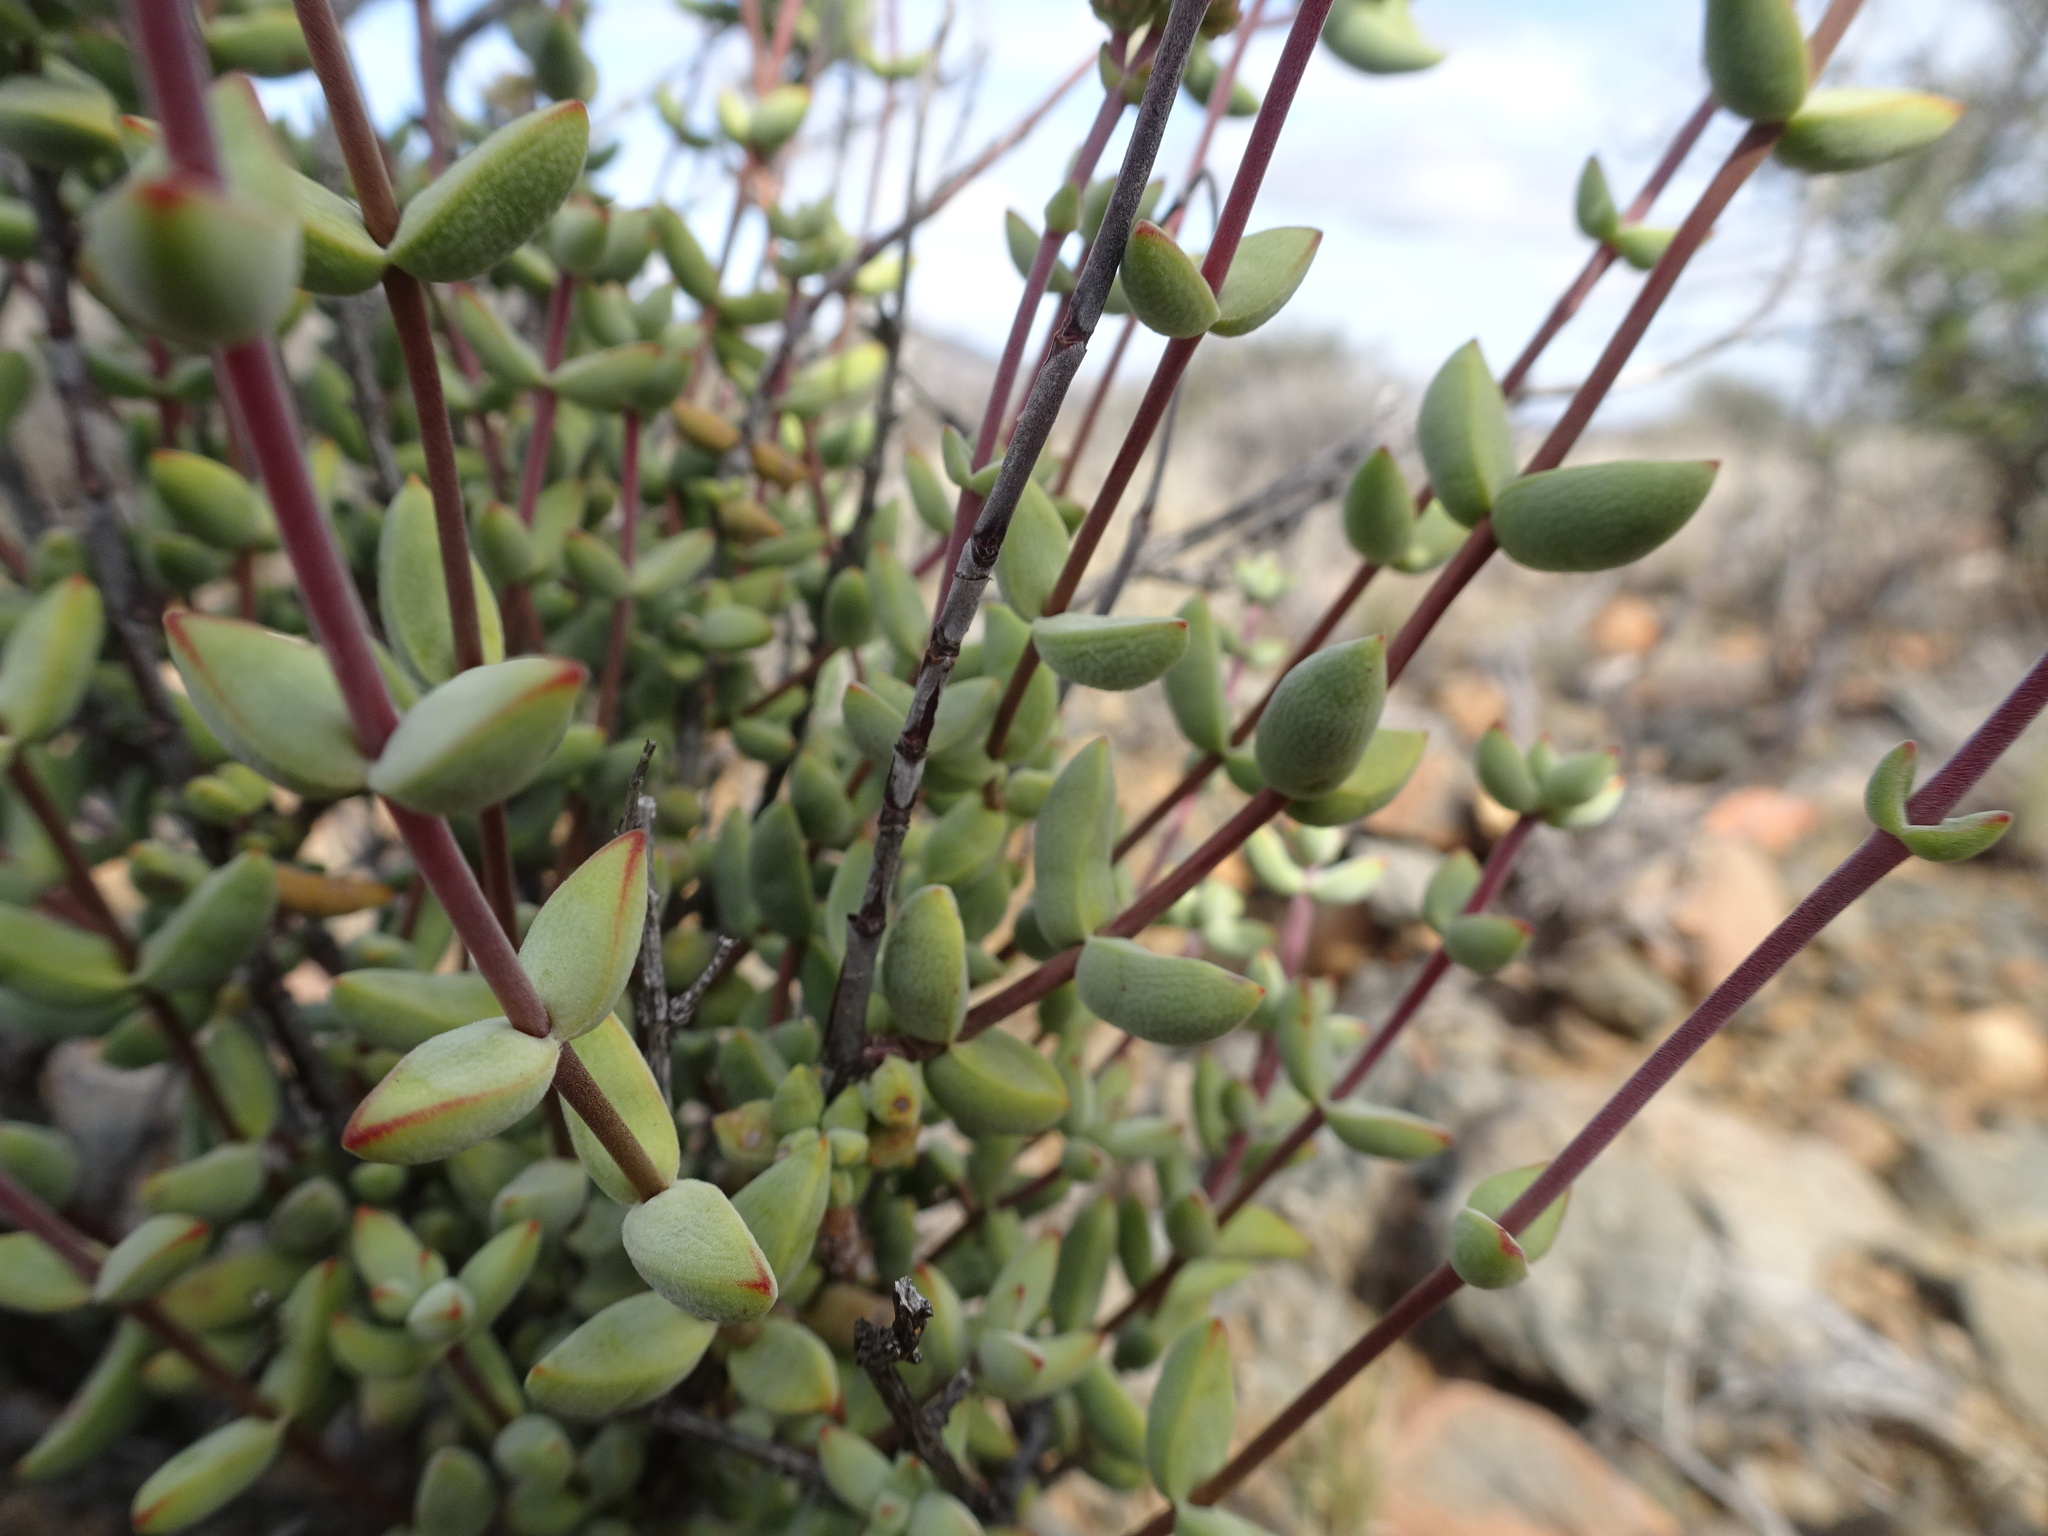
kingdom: Plantae
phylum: Tracheophyta
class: Magnoliopsida
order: Saxifragales
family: Crassulaceae
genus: Crassula
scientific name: Crassula subaphylla
